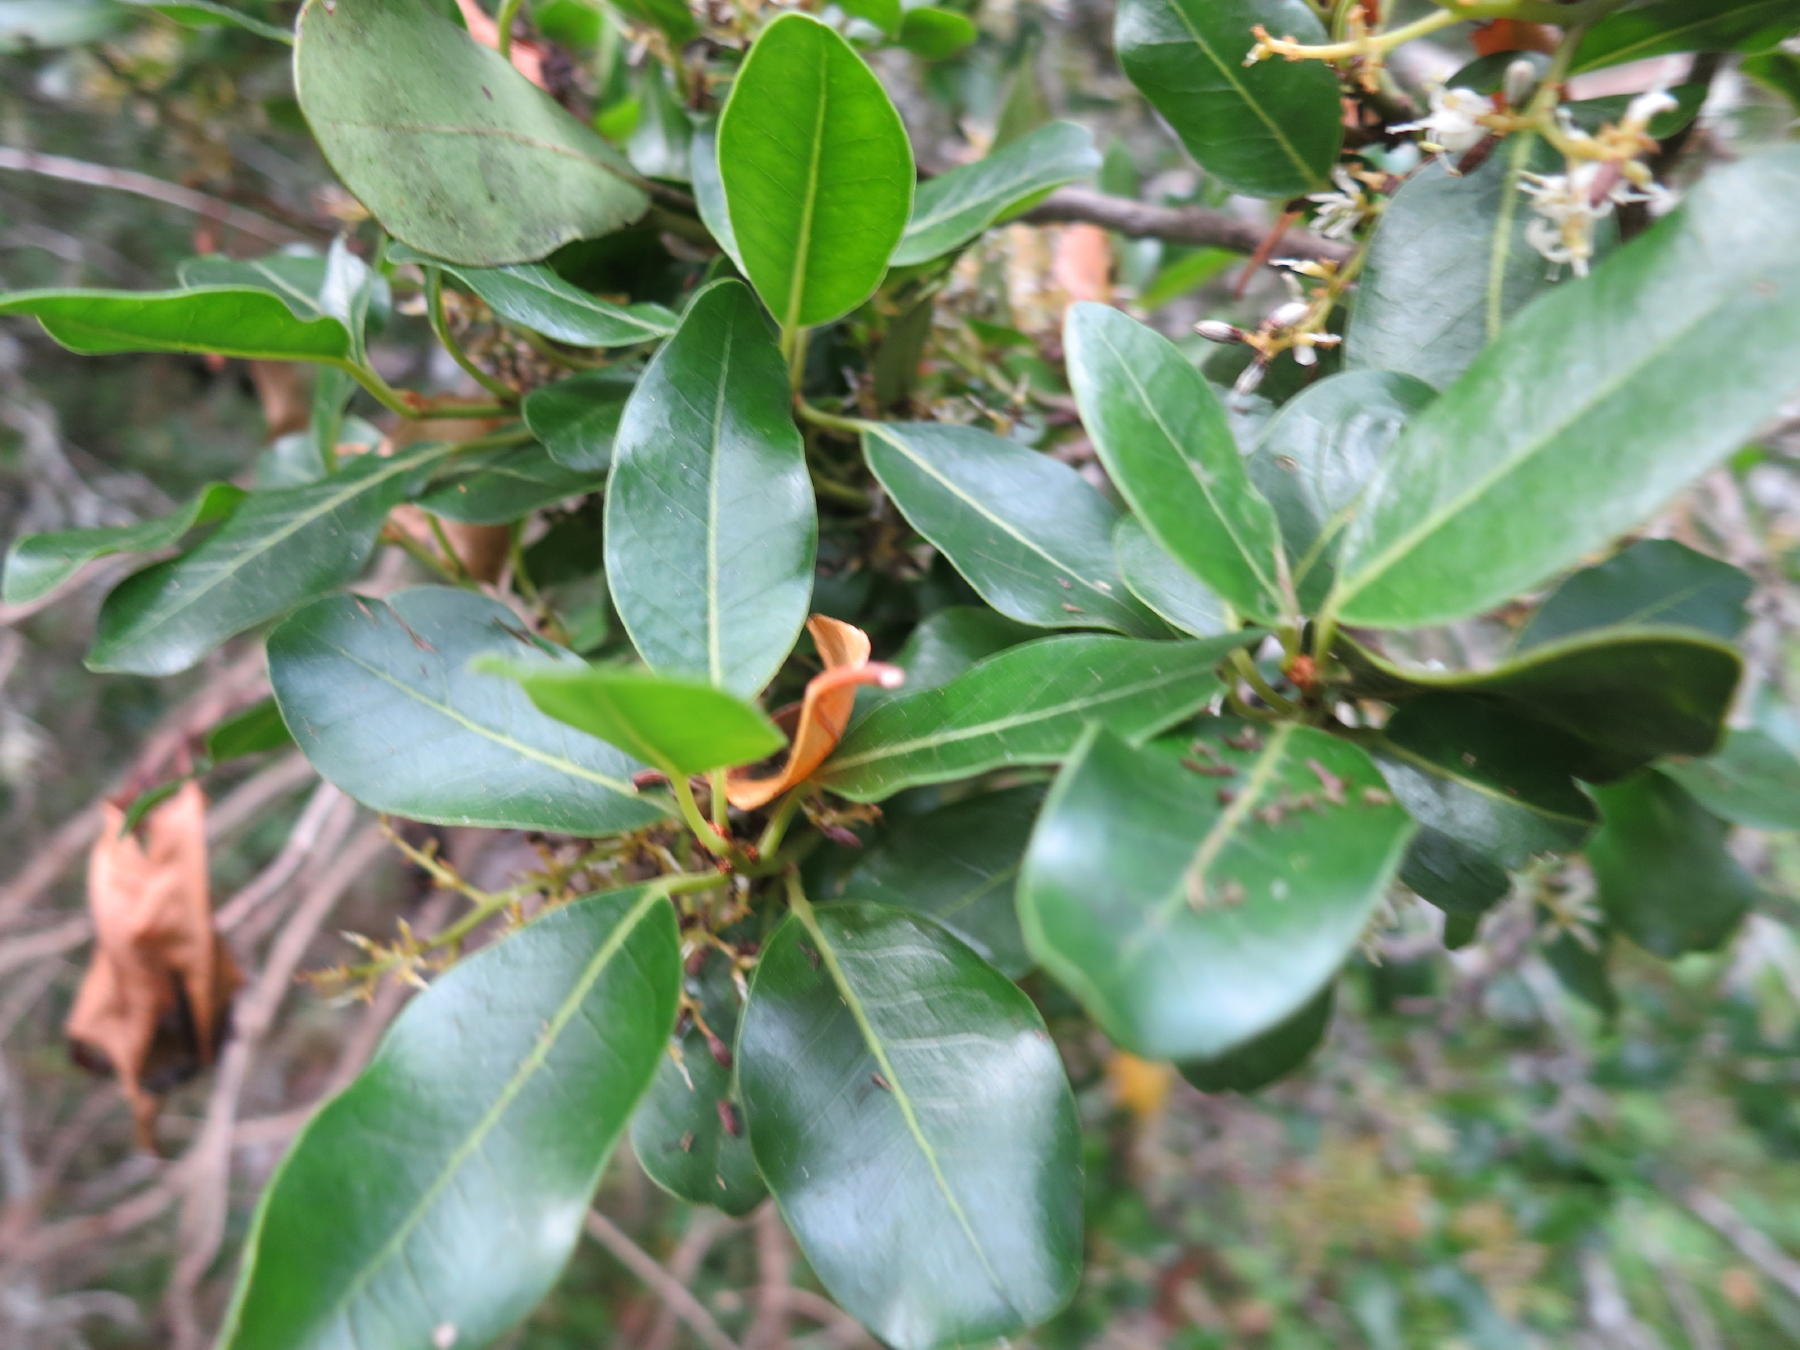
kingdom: Plantae
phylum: Tracheophyta
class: Magnoliopsida
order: Metteniusales
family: Metteniusaceae
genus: Apodytes
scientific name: Apodytes dimidiata
